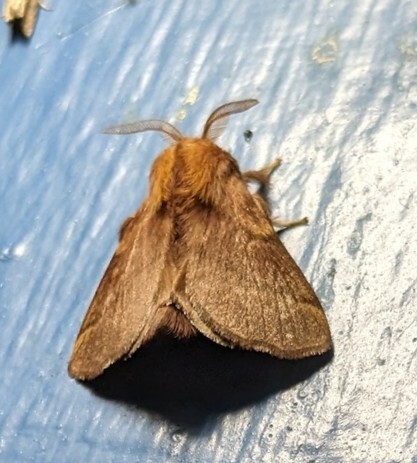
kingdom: Animalia
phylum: Arthropoda
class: Insecta
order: Lepidoptera
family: Lasiocampidae
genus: Malacosoma
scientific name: Malacosoma disstria
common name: Forest tent caterpillar
